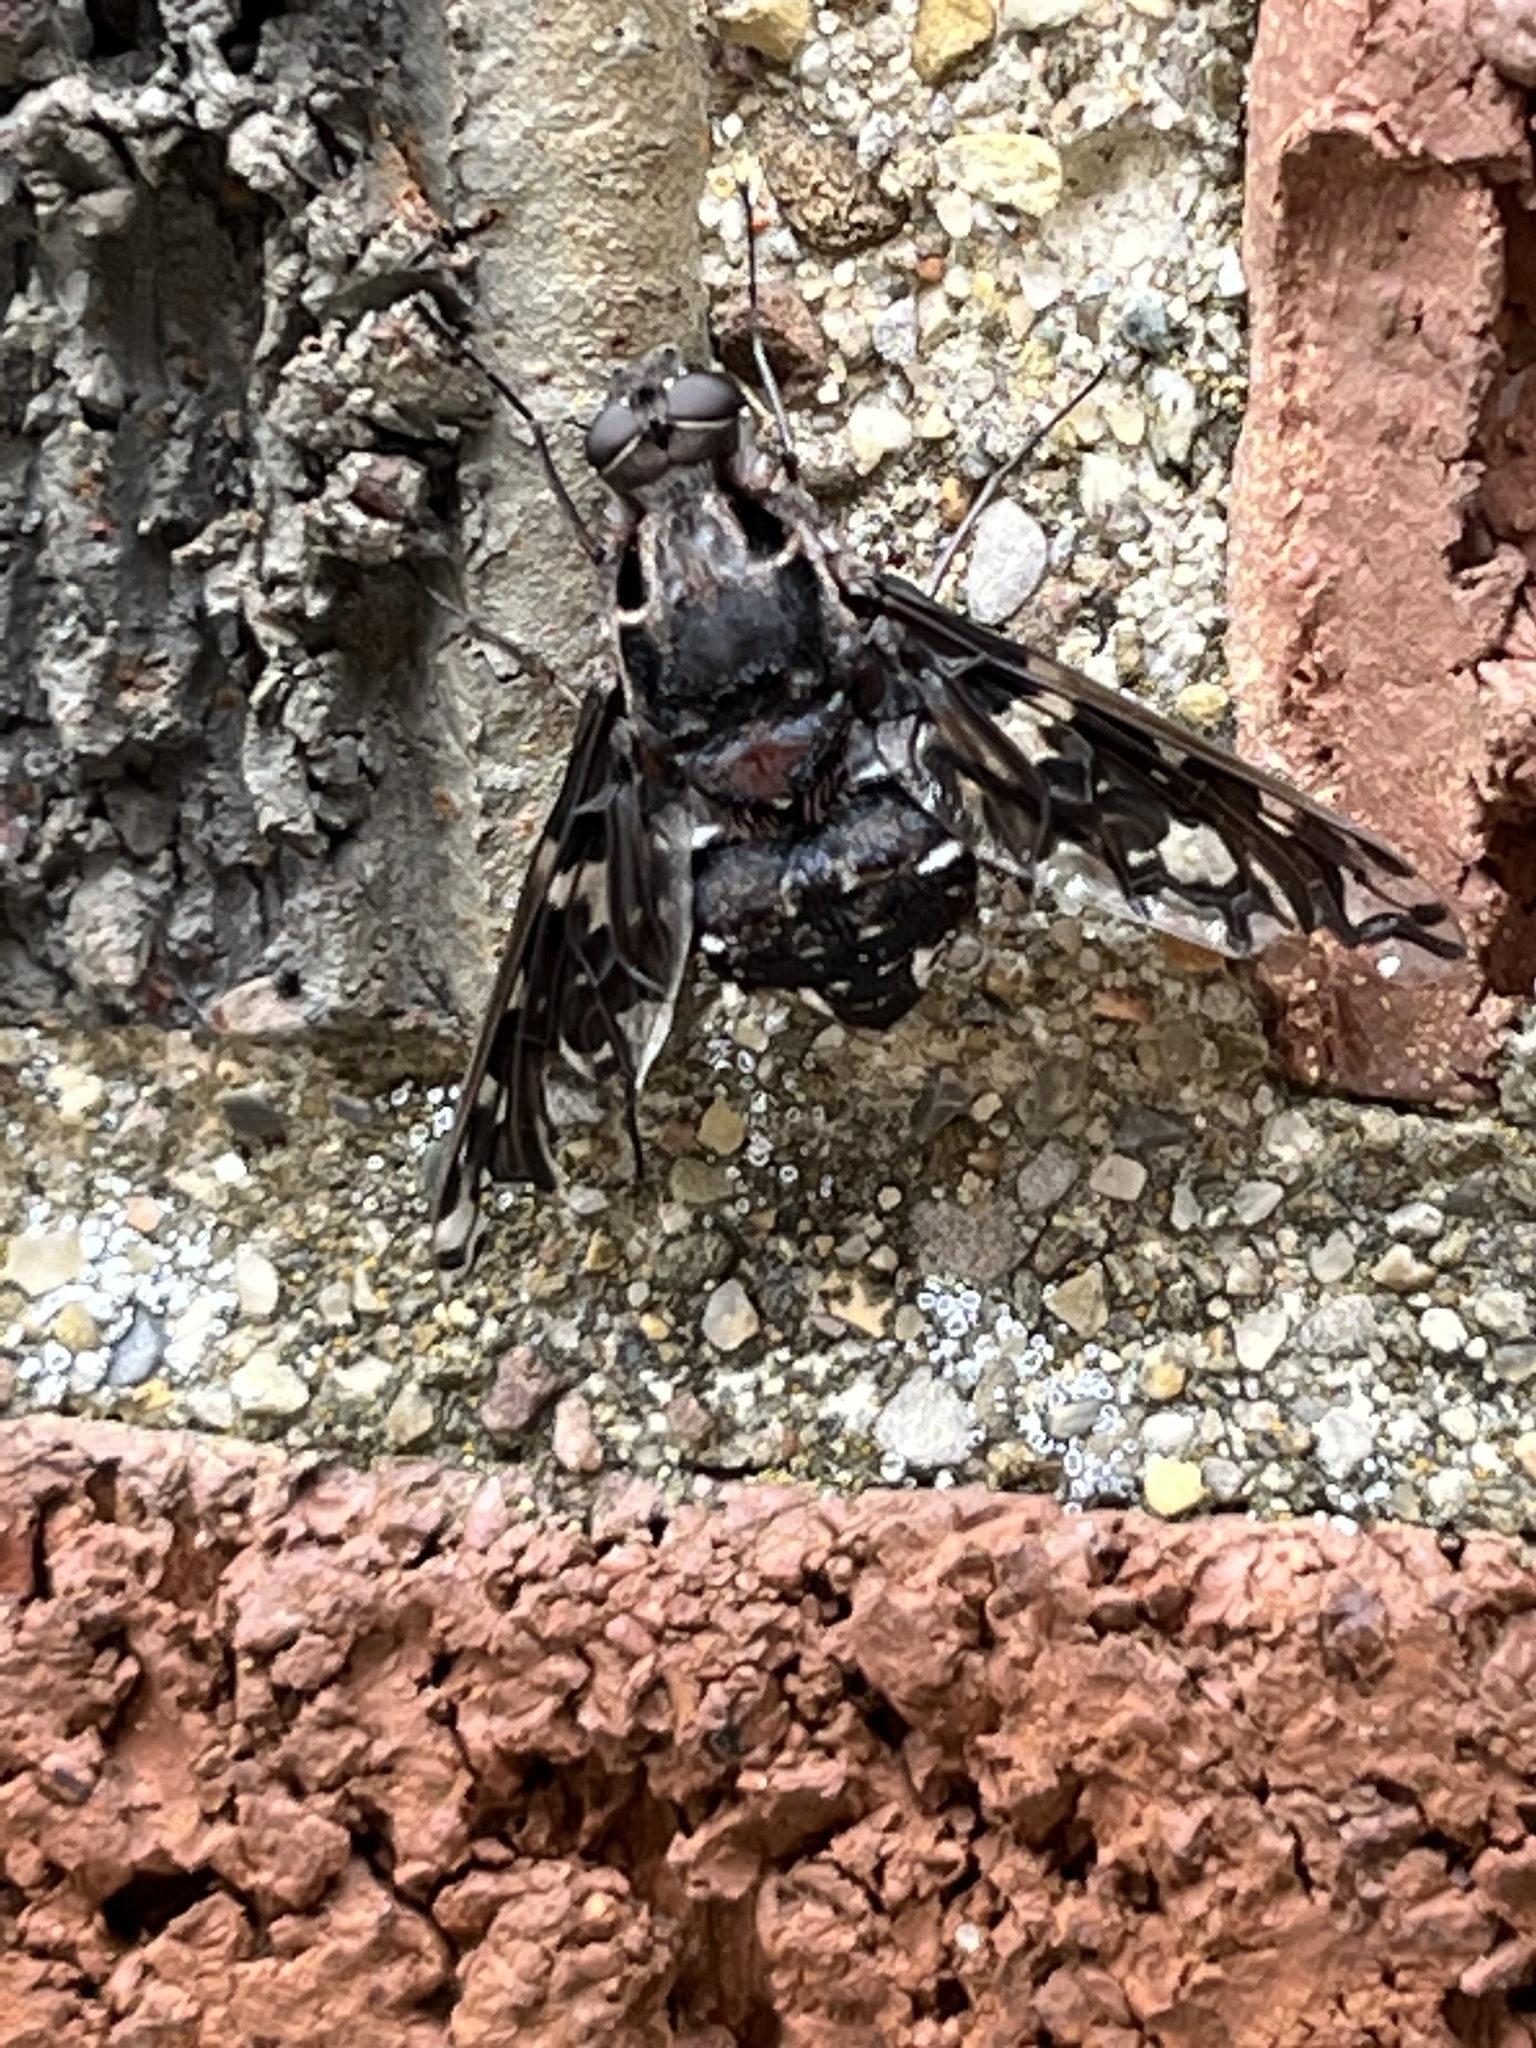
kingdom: Animalia
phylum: Arthropoda
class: Insecta
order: Diptera
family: Bombyliidae
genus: Xenox
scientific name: Xenox tigrinus
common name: Tiger bee fly
